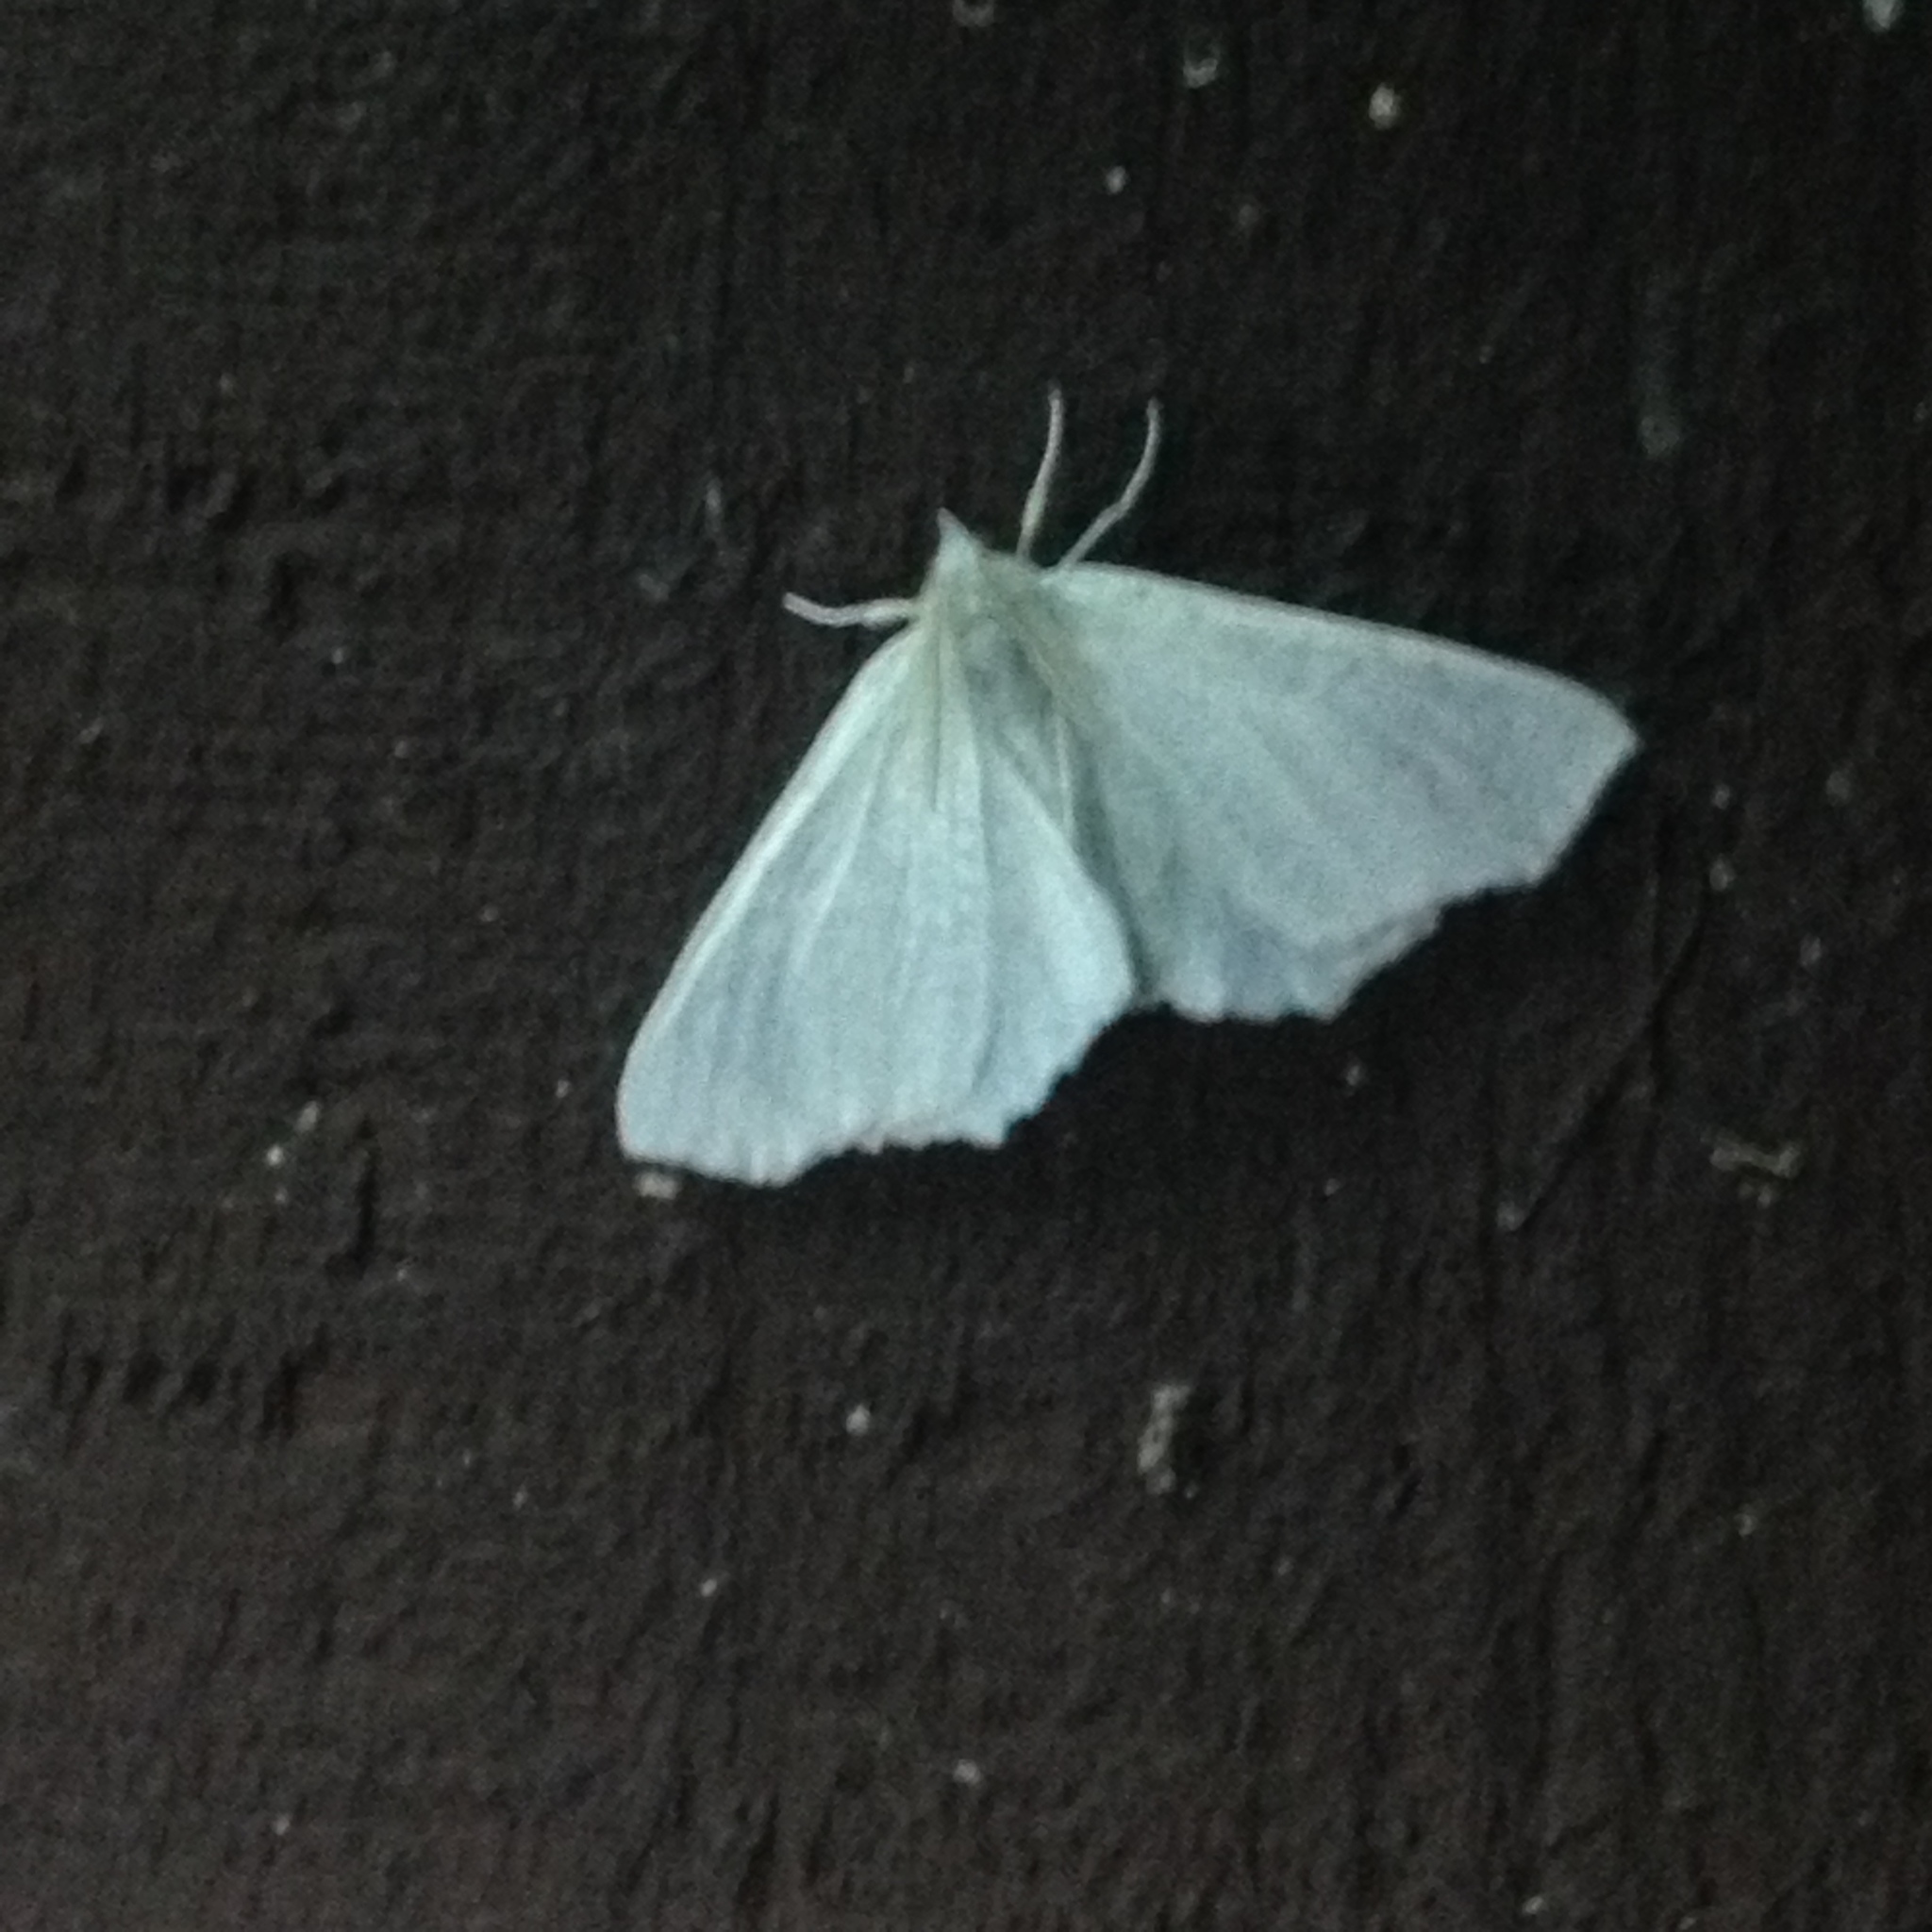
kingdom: Animalia
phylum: Arthropoda
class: Insecta
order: Lepidoptera
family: Geometridae
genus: Ennomos
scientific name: Ennomos subsignaria
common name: Elm spanworm
